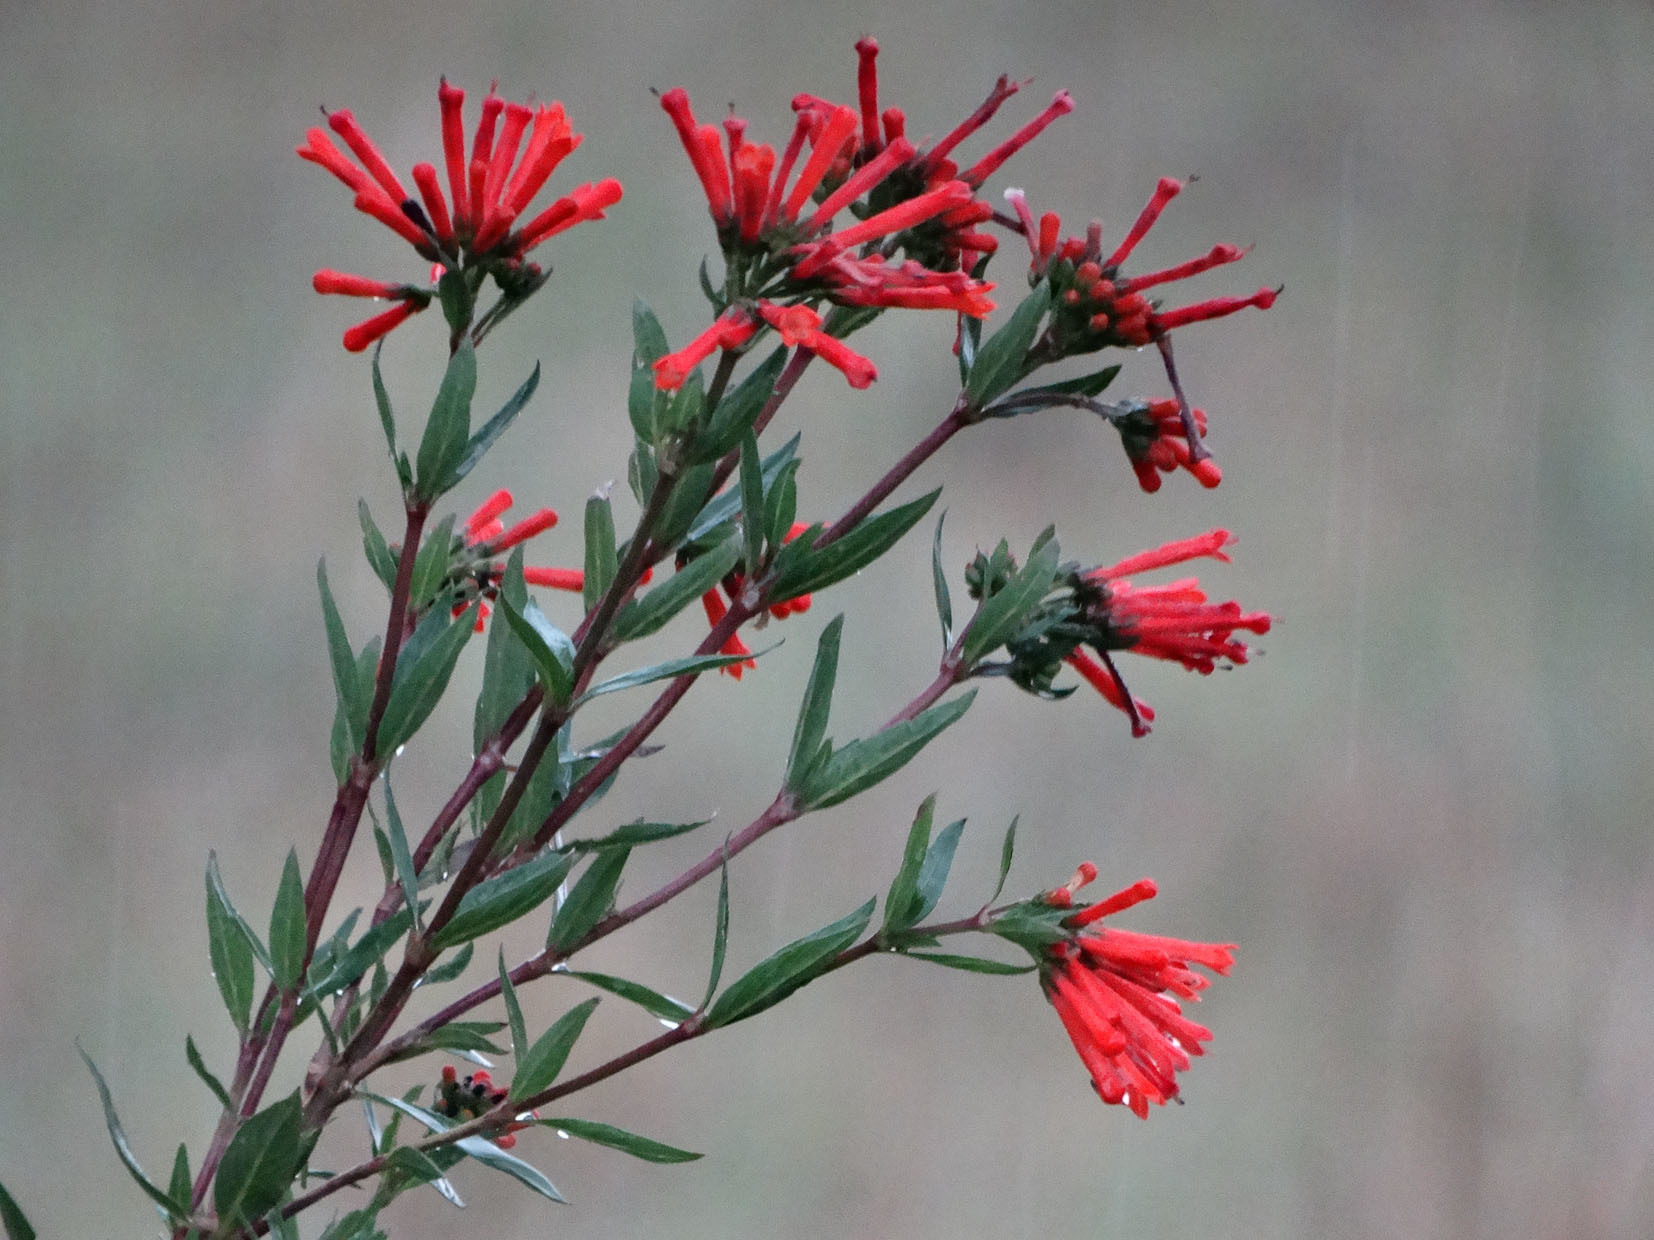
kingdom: Plantae
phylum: Tracheophyta
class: Magnoliopsida
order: Gentianales
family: Rubiaceae
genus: Bouvardia
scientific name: Bouvardia ternifolia
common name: Scarlet bouvardia
